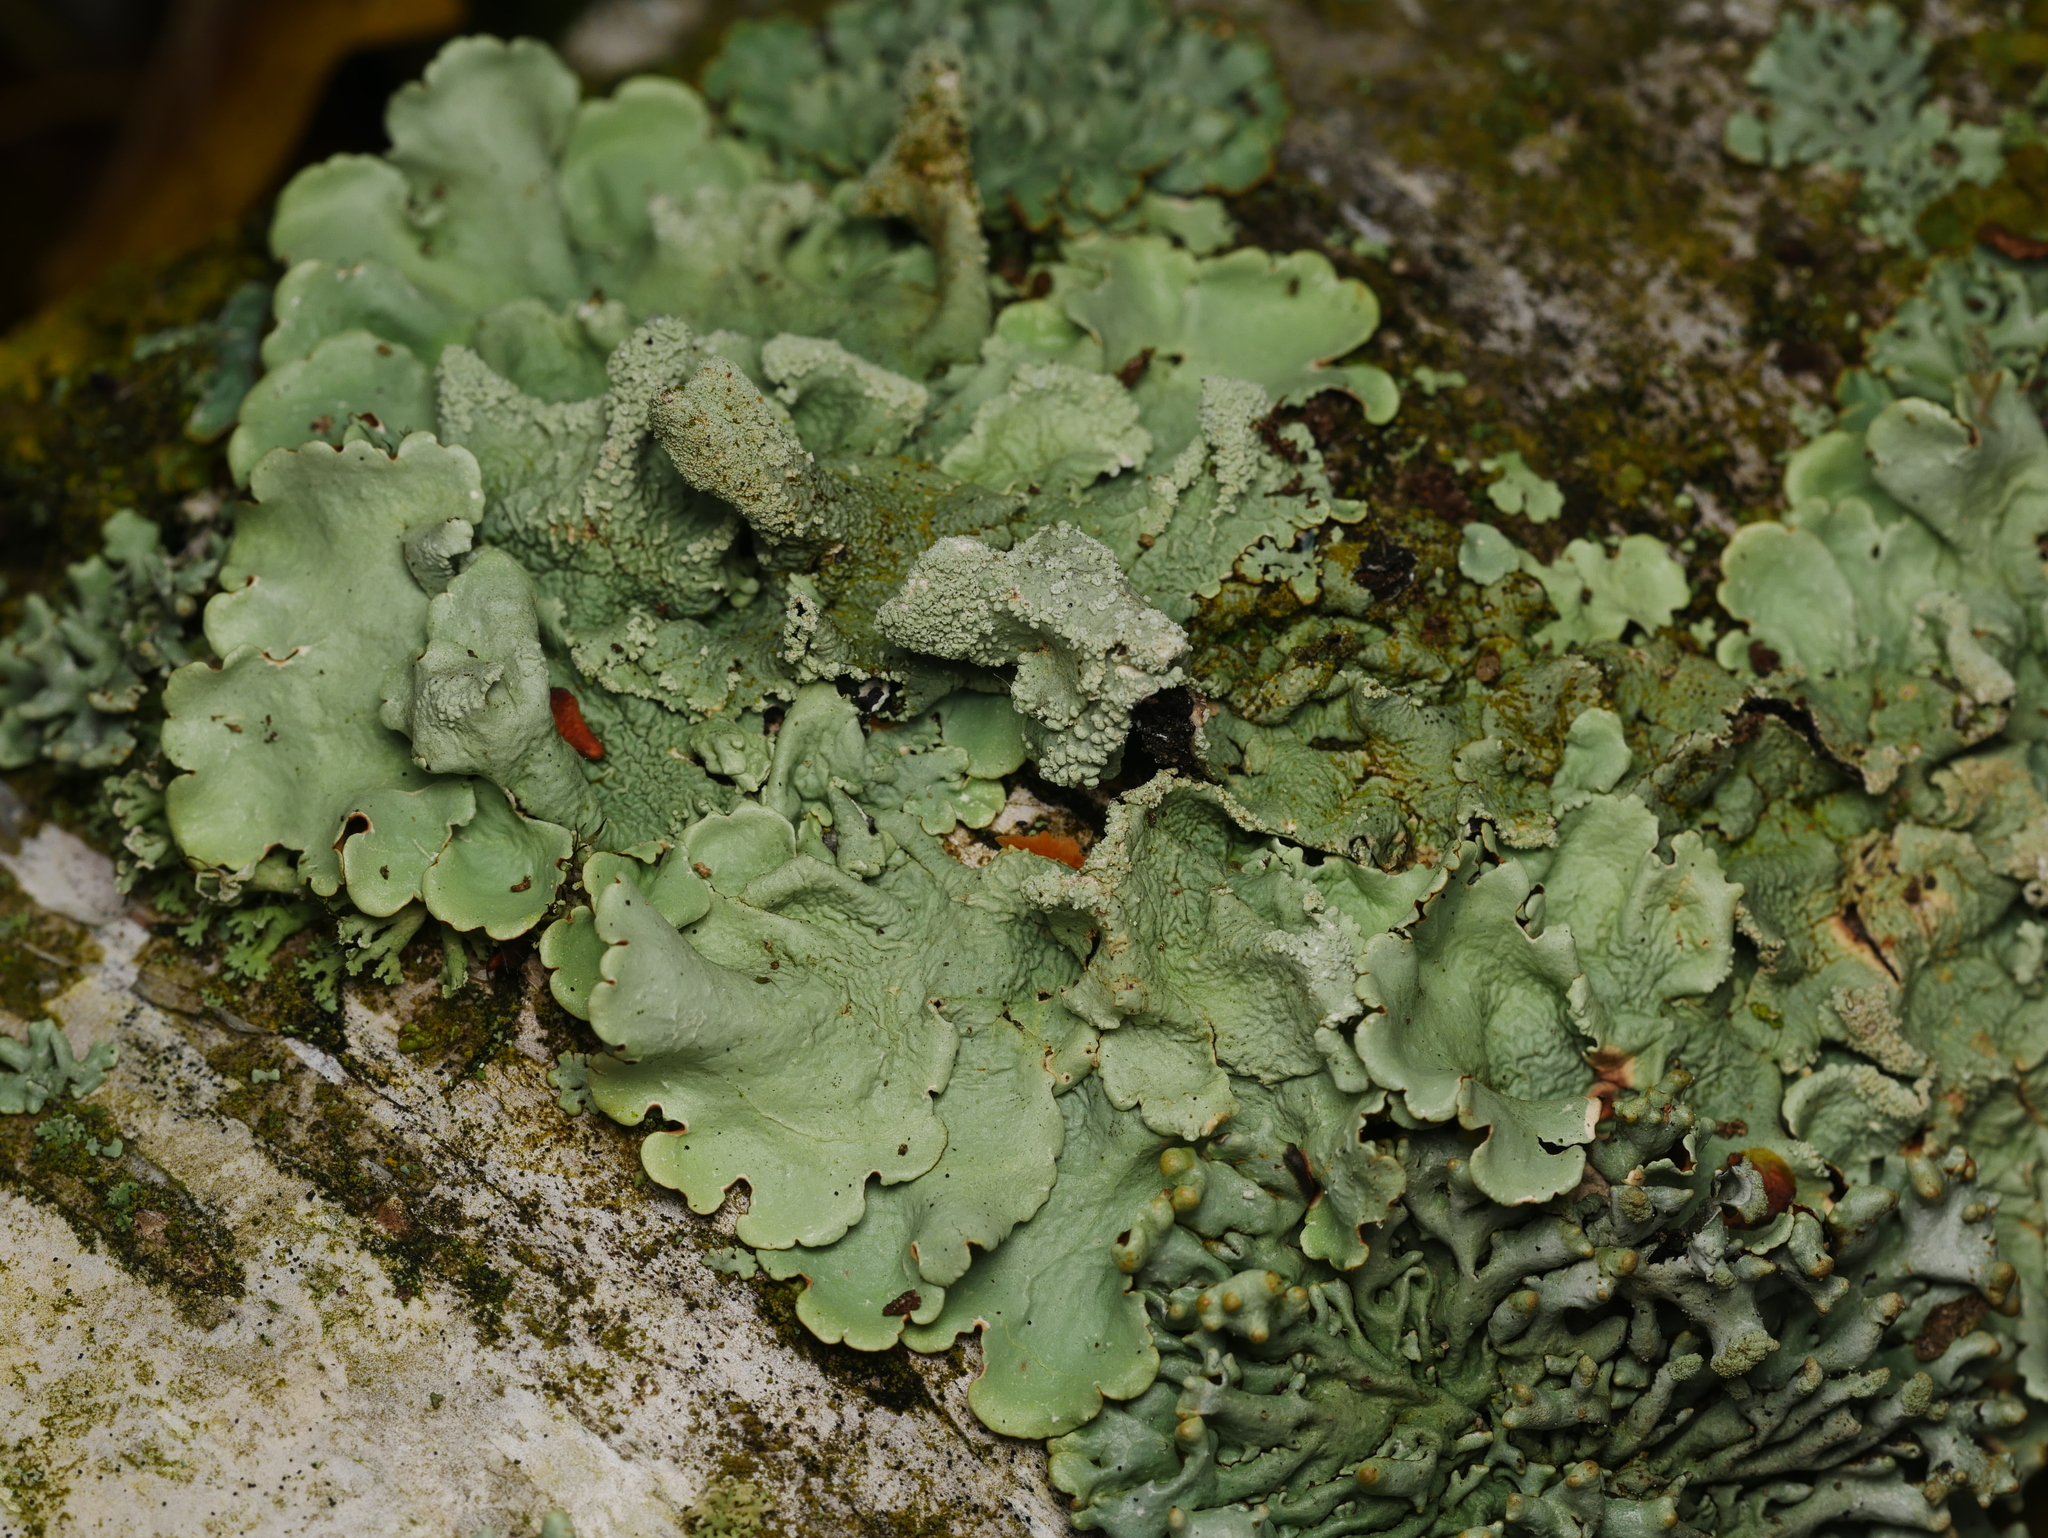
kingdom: Fungi
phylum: Ascomycota
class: Lecanoromycetes
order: Lecanorales
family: Parmeliaceae
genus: Flavoparmelia
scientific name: Flavoparmelia caperata
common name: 40-mile per hour lichen
